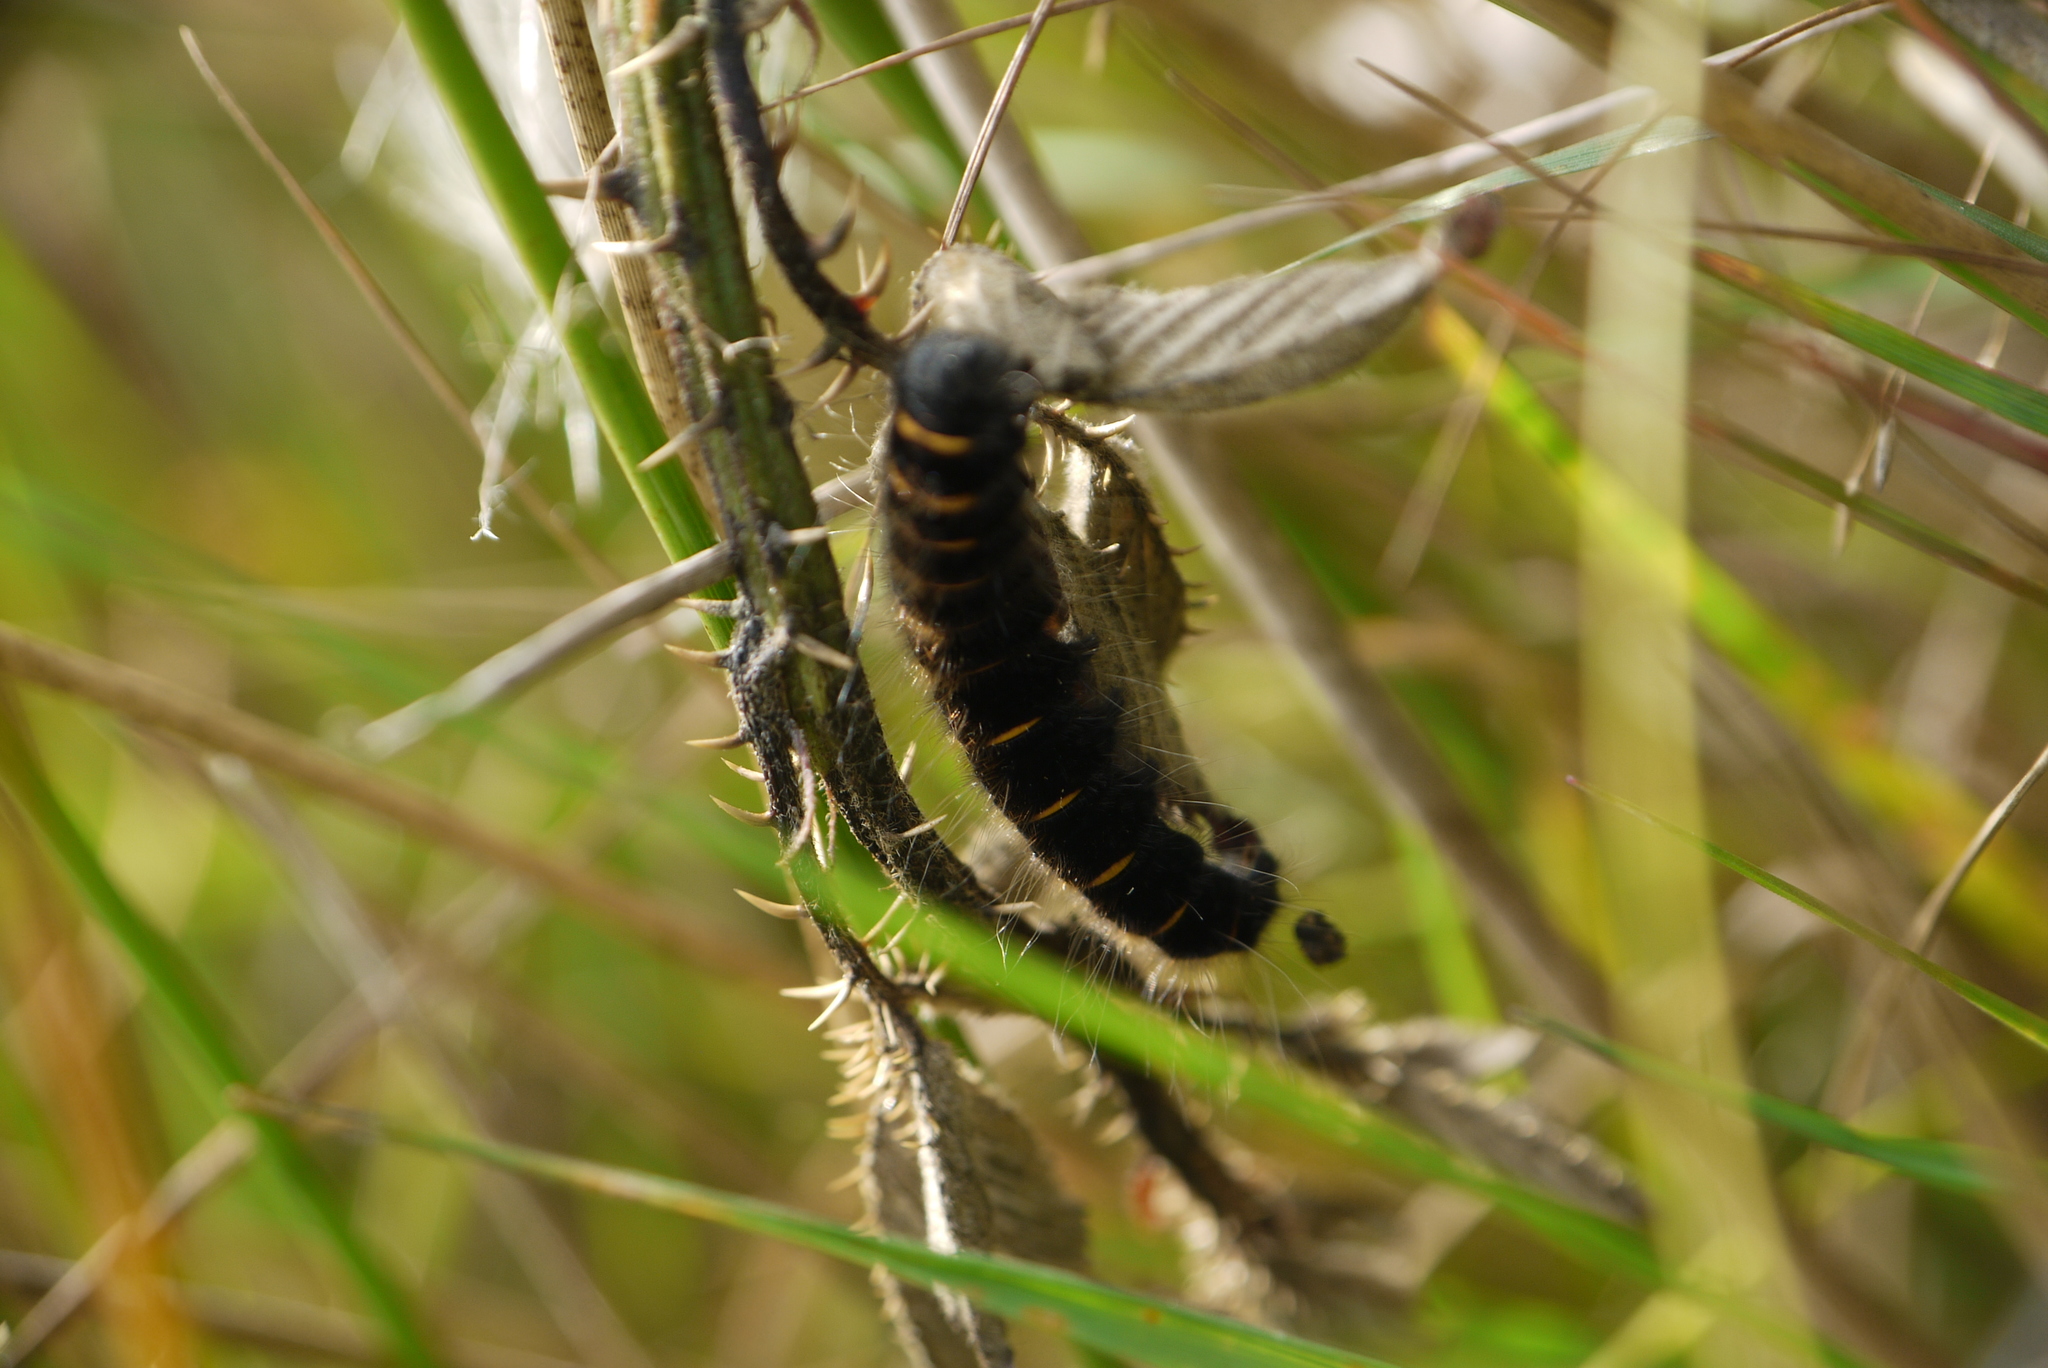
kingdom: Animalia
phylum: Arthropoda
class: Insecta
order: Lepidoptera
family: Lasiocampidae
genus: Macrothylacia
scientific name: Macrothylacia rubi
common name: Fox moth
